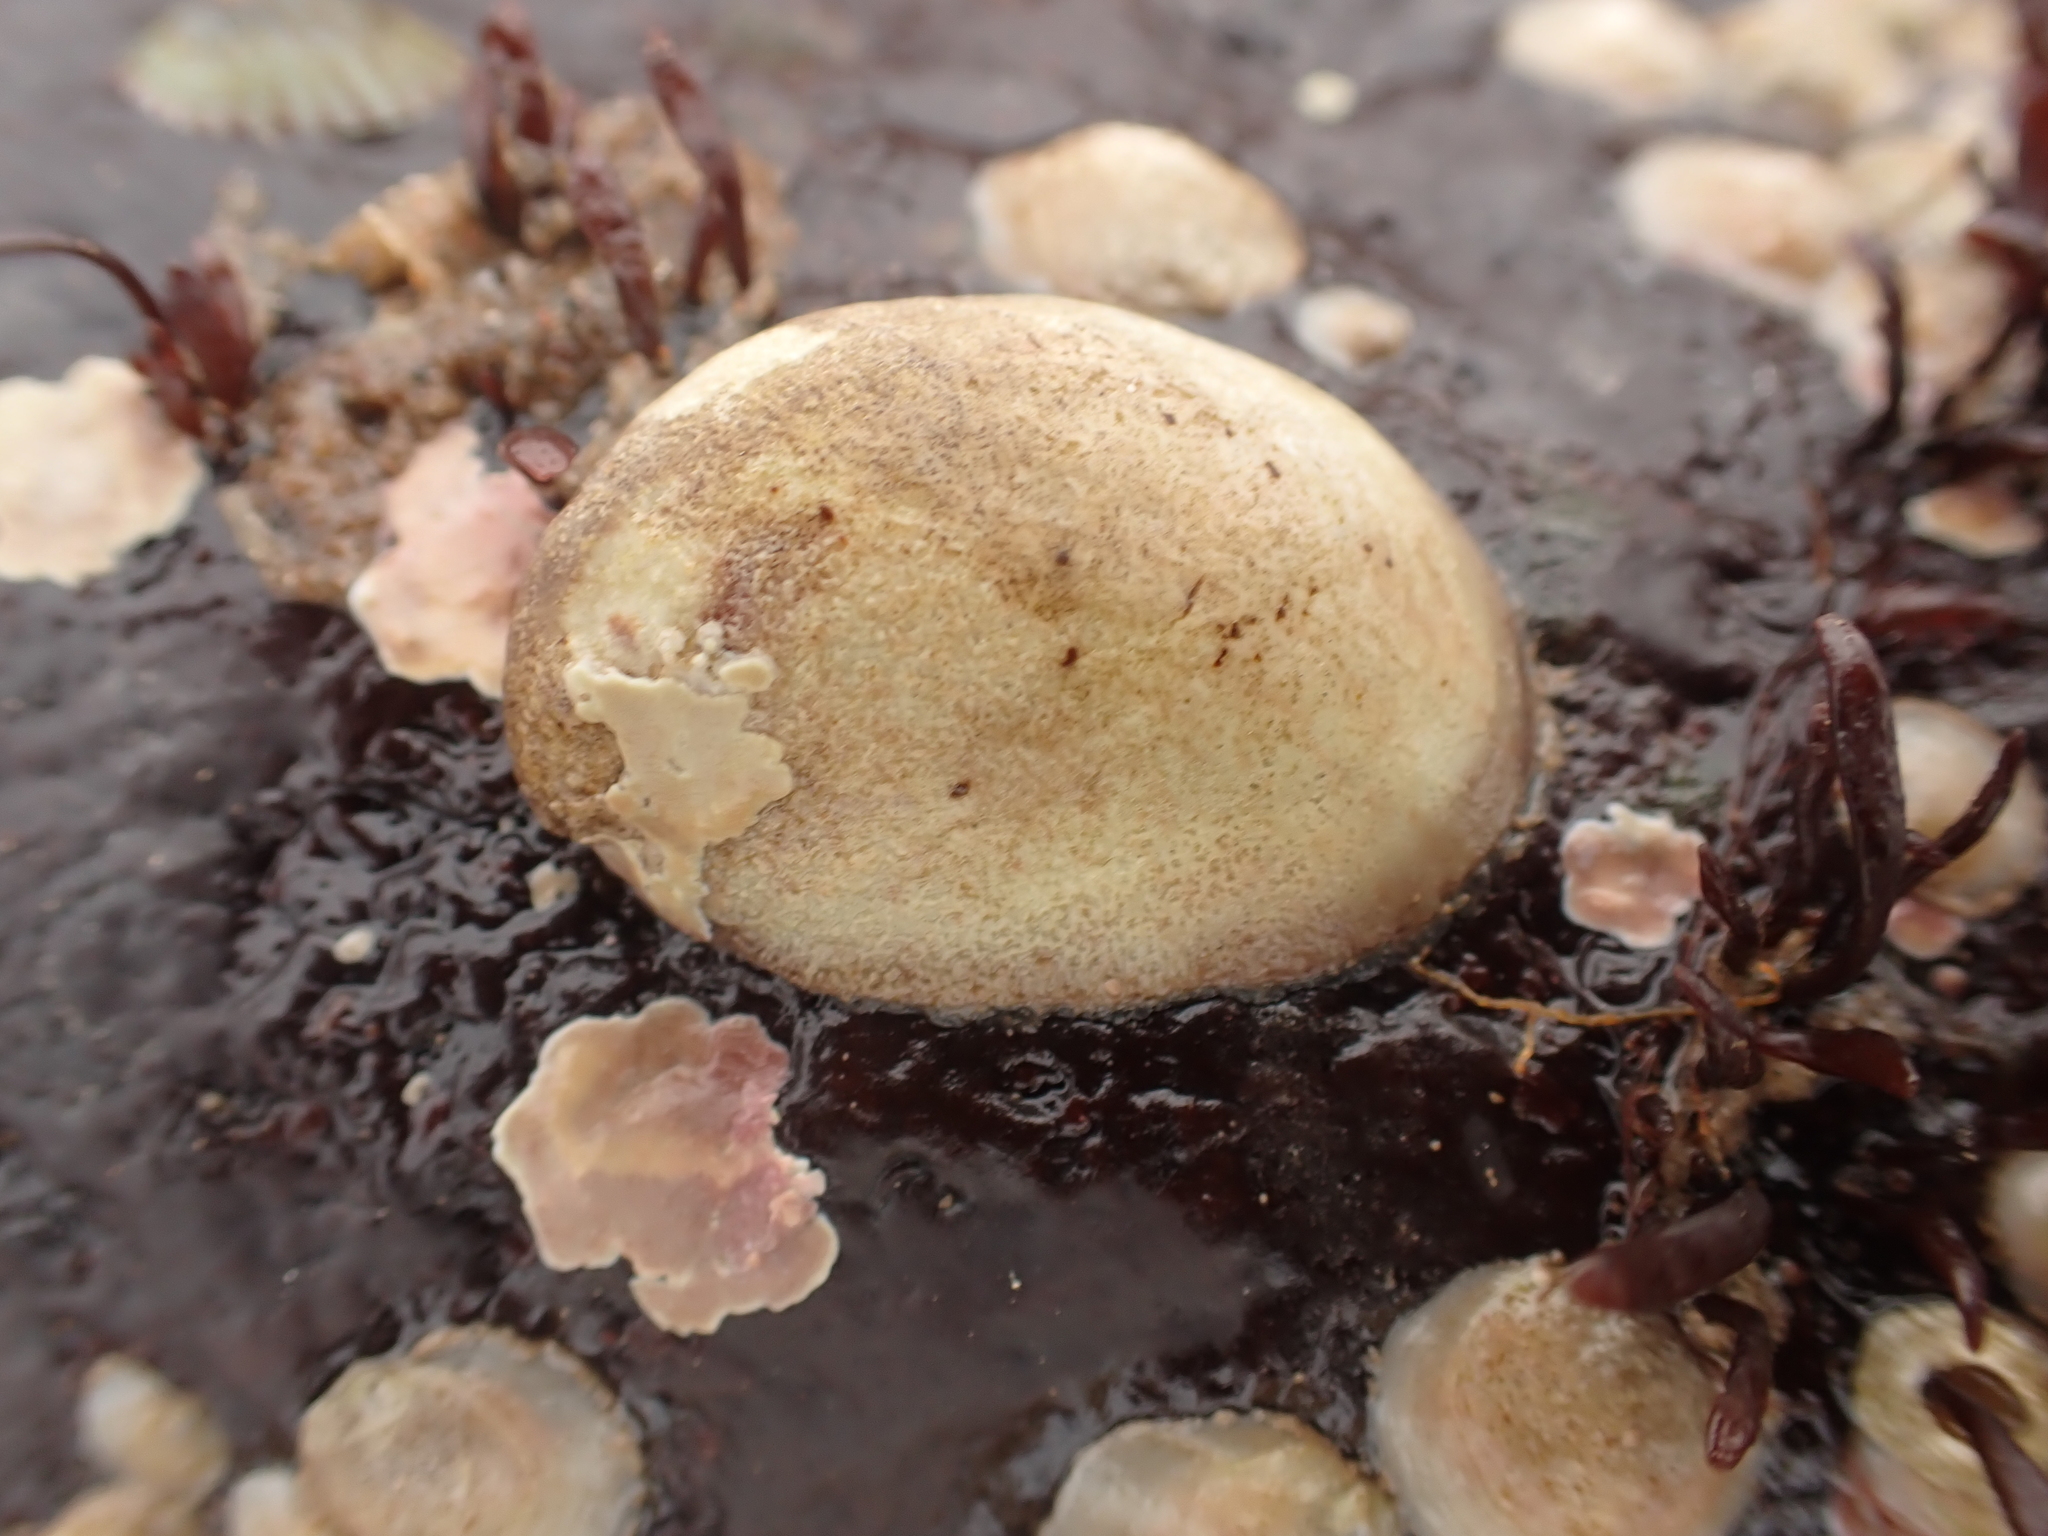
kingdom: Animalia
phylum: Mollusca
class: Gastropoda
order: Littorinimorpha
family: Calyptraeidae
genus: Crepidula
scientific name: Crepidula fornicata
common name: Slipper limpet
